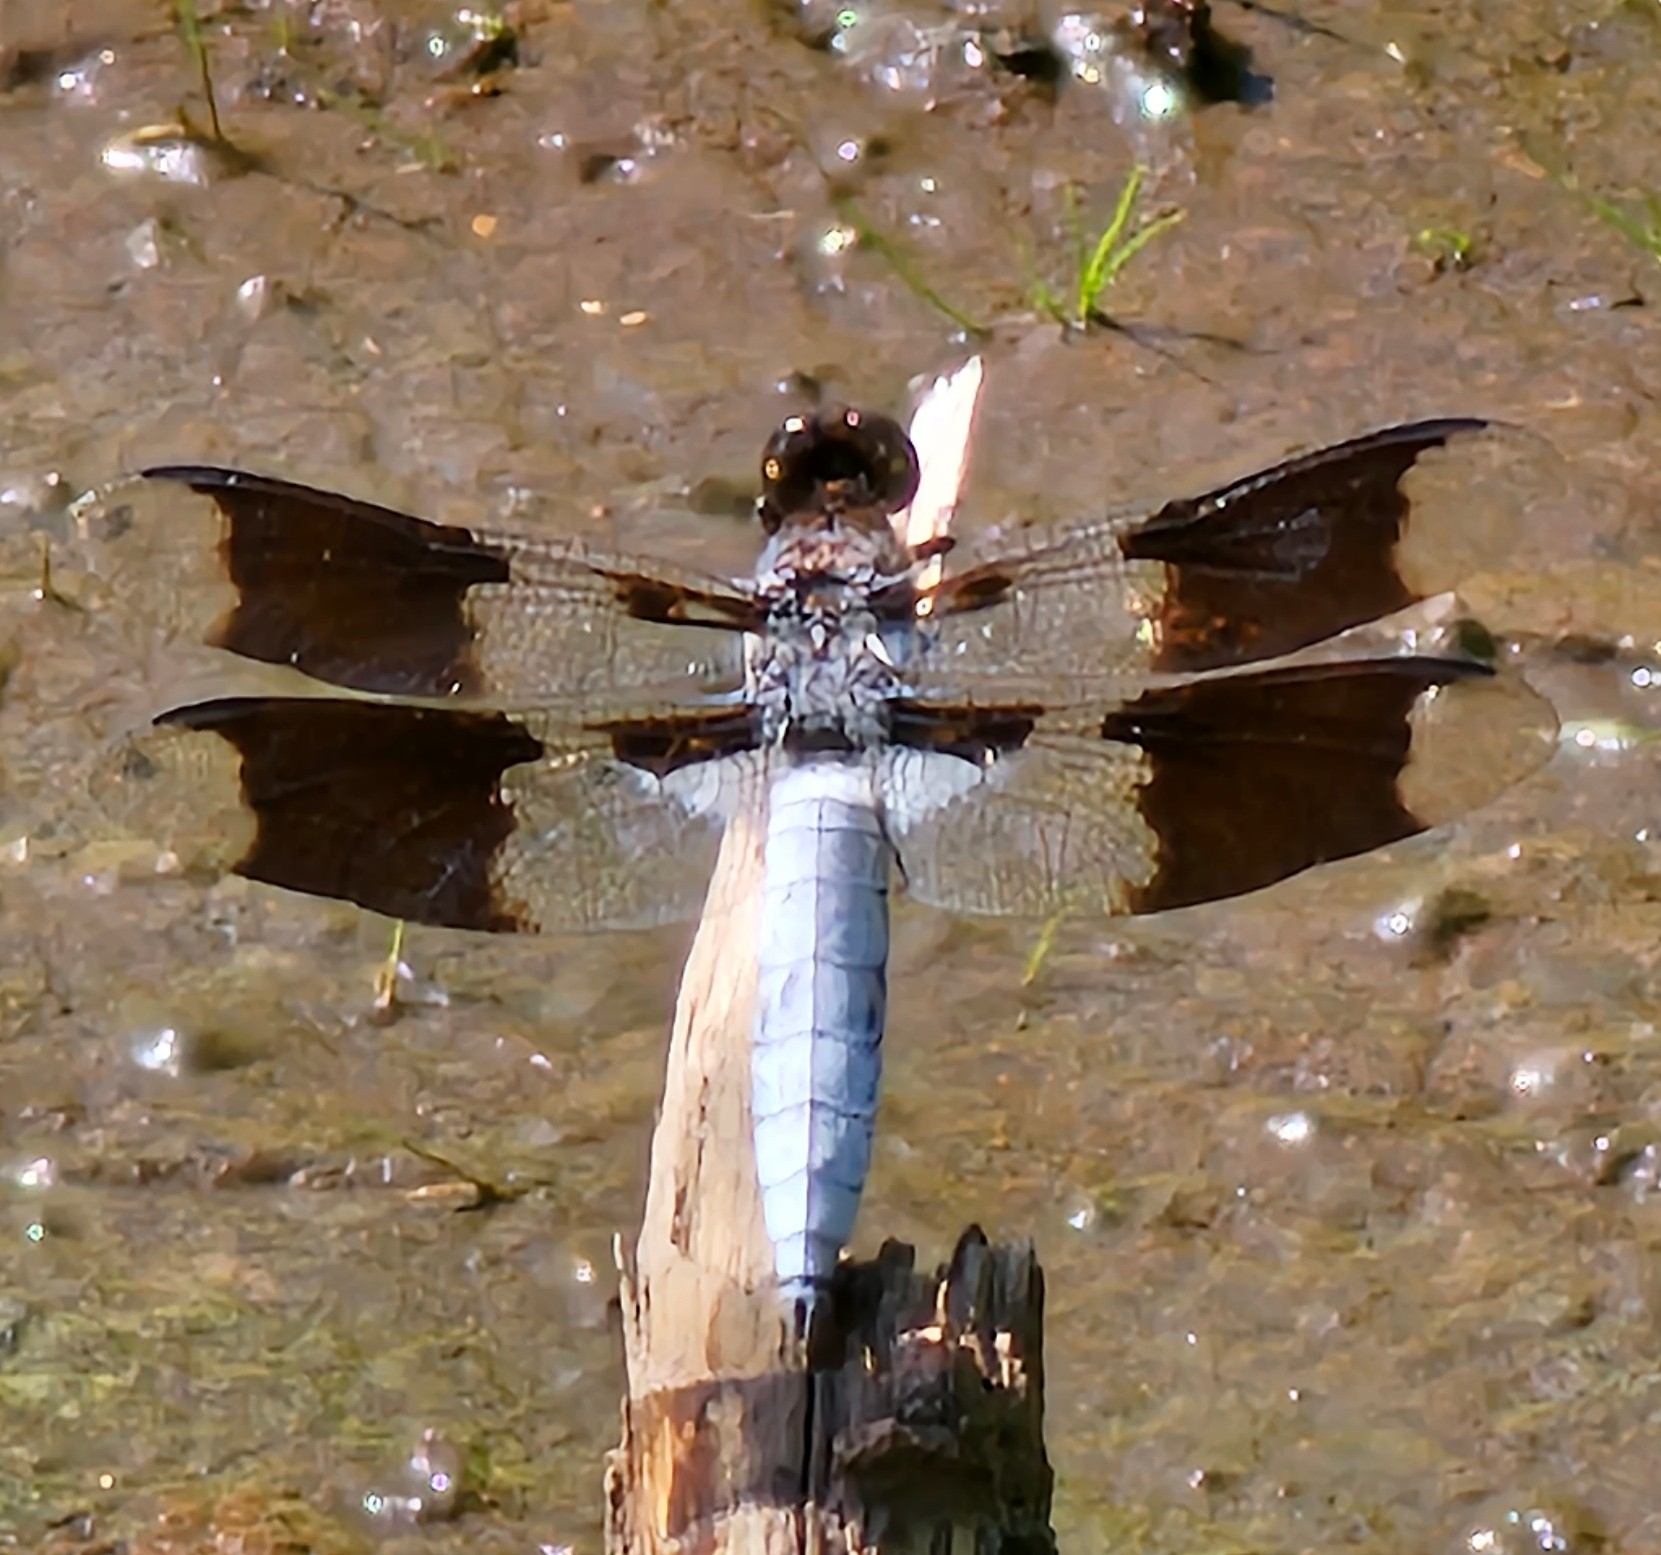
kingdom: Animalia
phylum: Arthropoda
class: Insecta
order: Odonata
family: Libellulidae
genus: Plathemis
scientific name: Plathemis lydia
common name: Common whitetail
